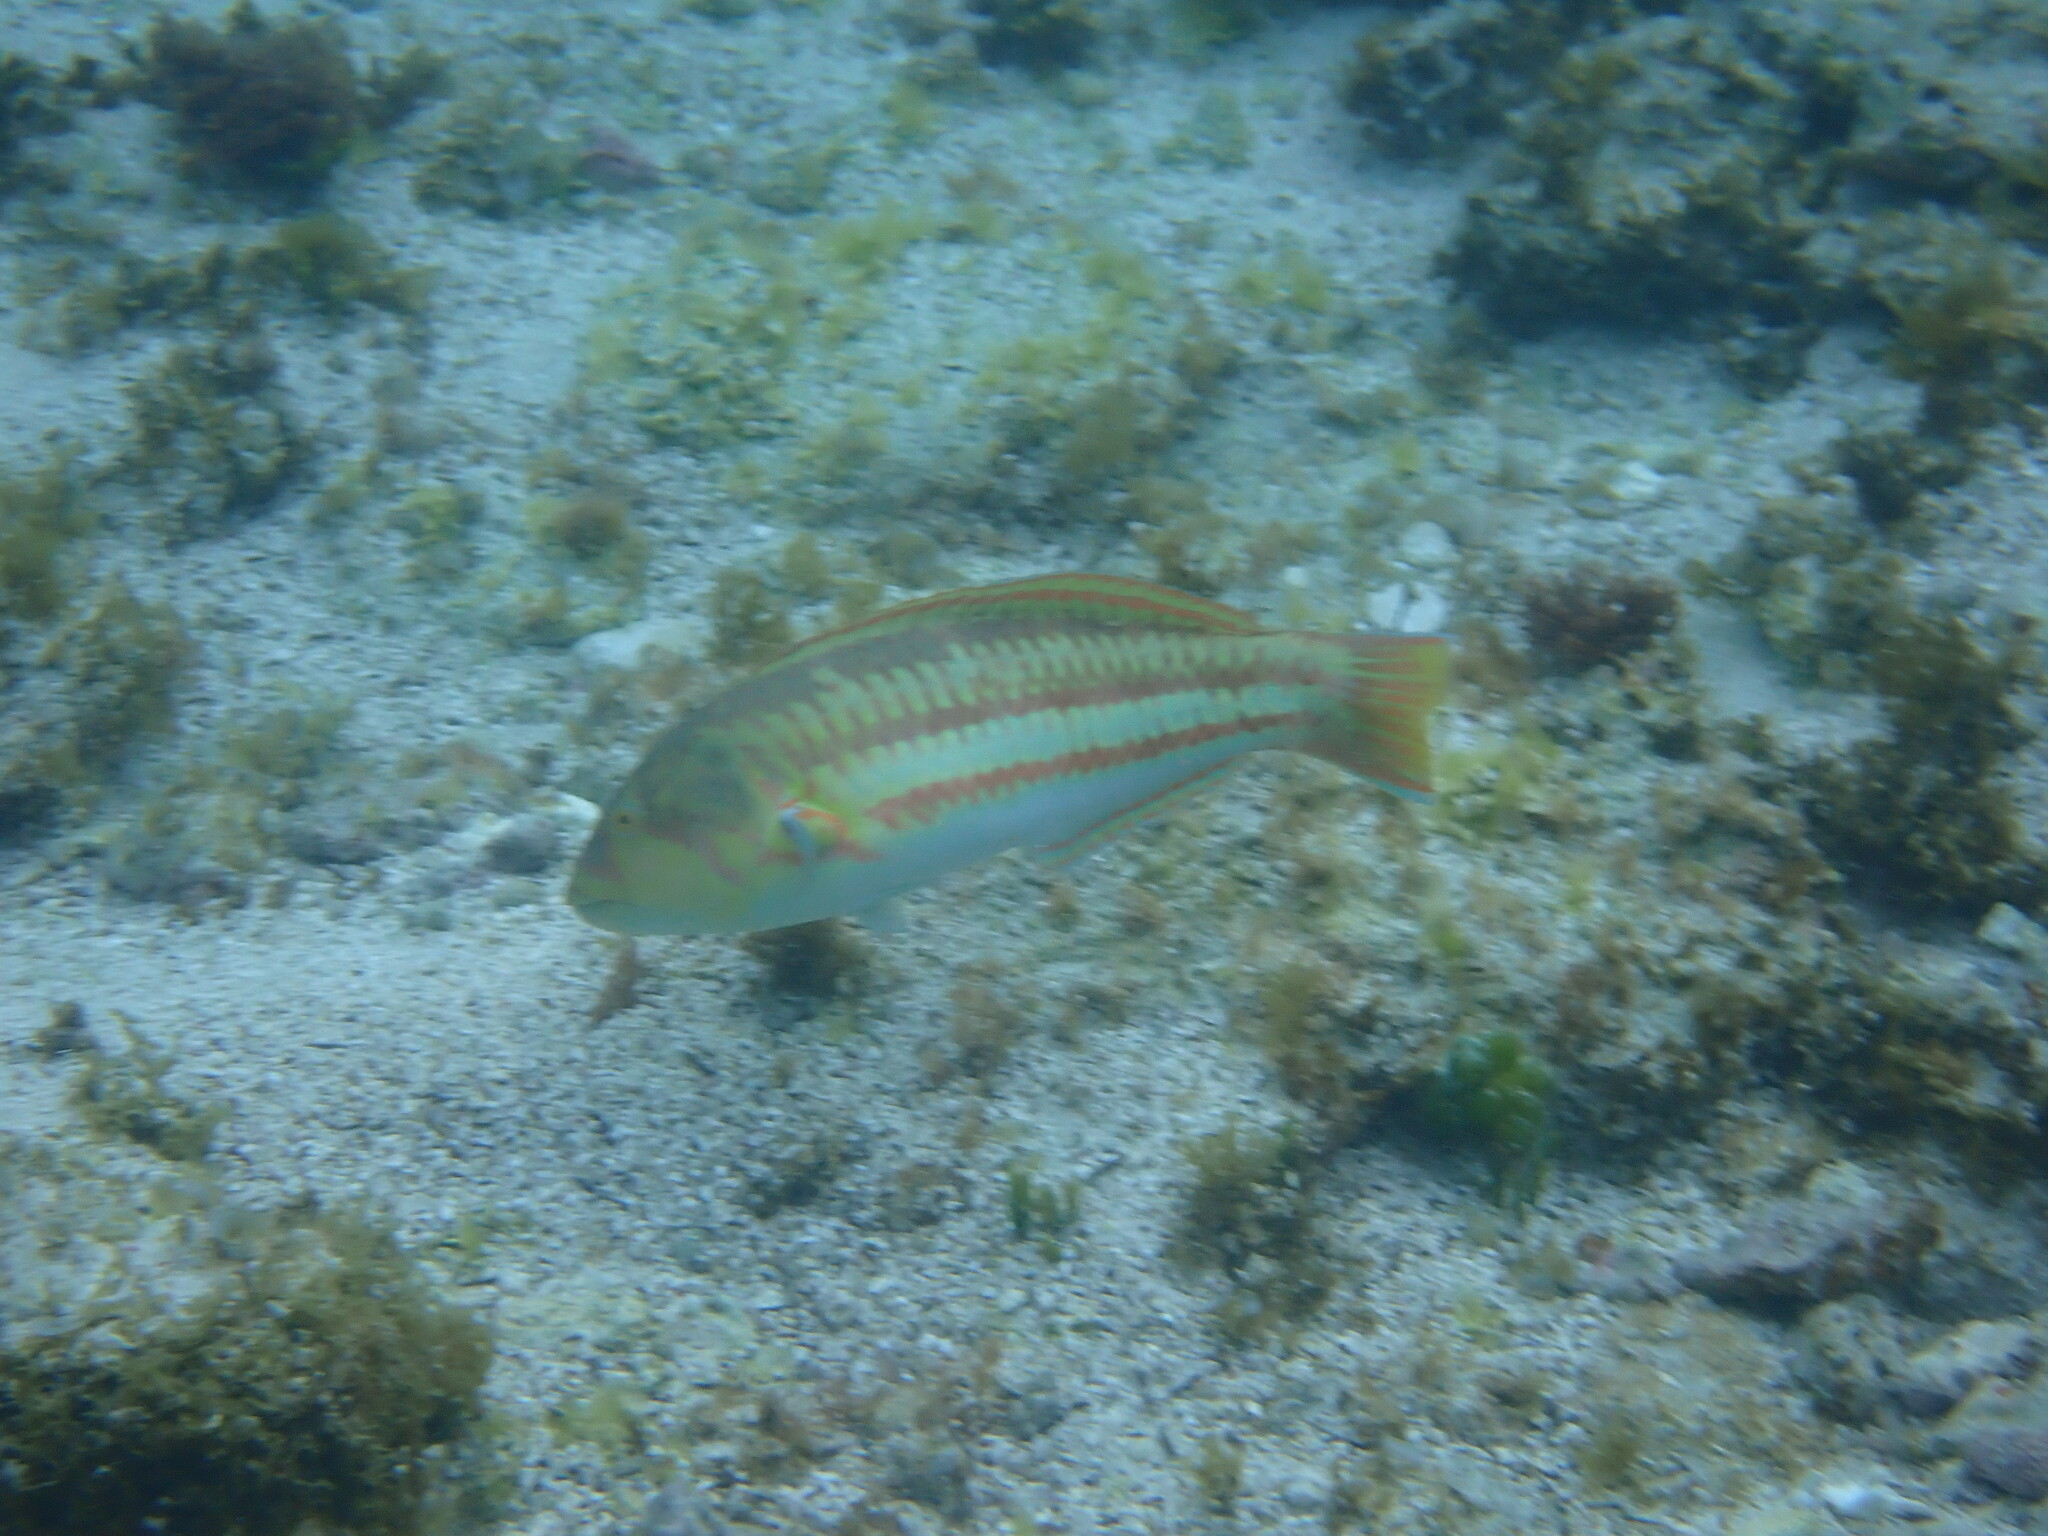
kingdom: Animalia
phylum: Chordata
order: Perciformes
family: Labridae
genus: Thalassoma
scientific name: Thalassoma purpureum
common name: Parrotfish
